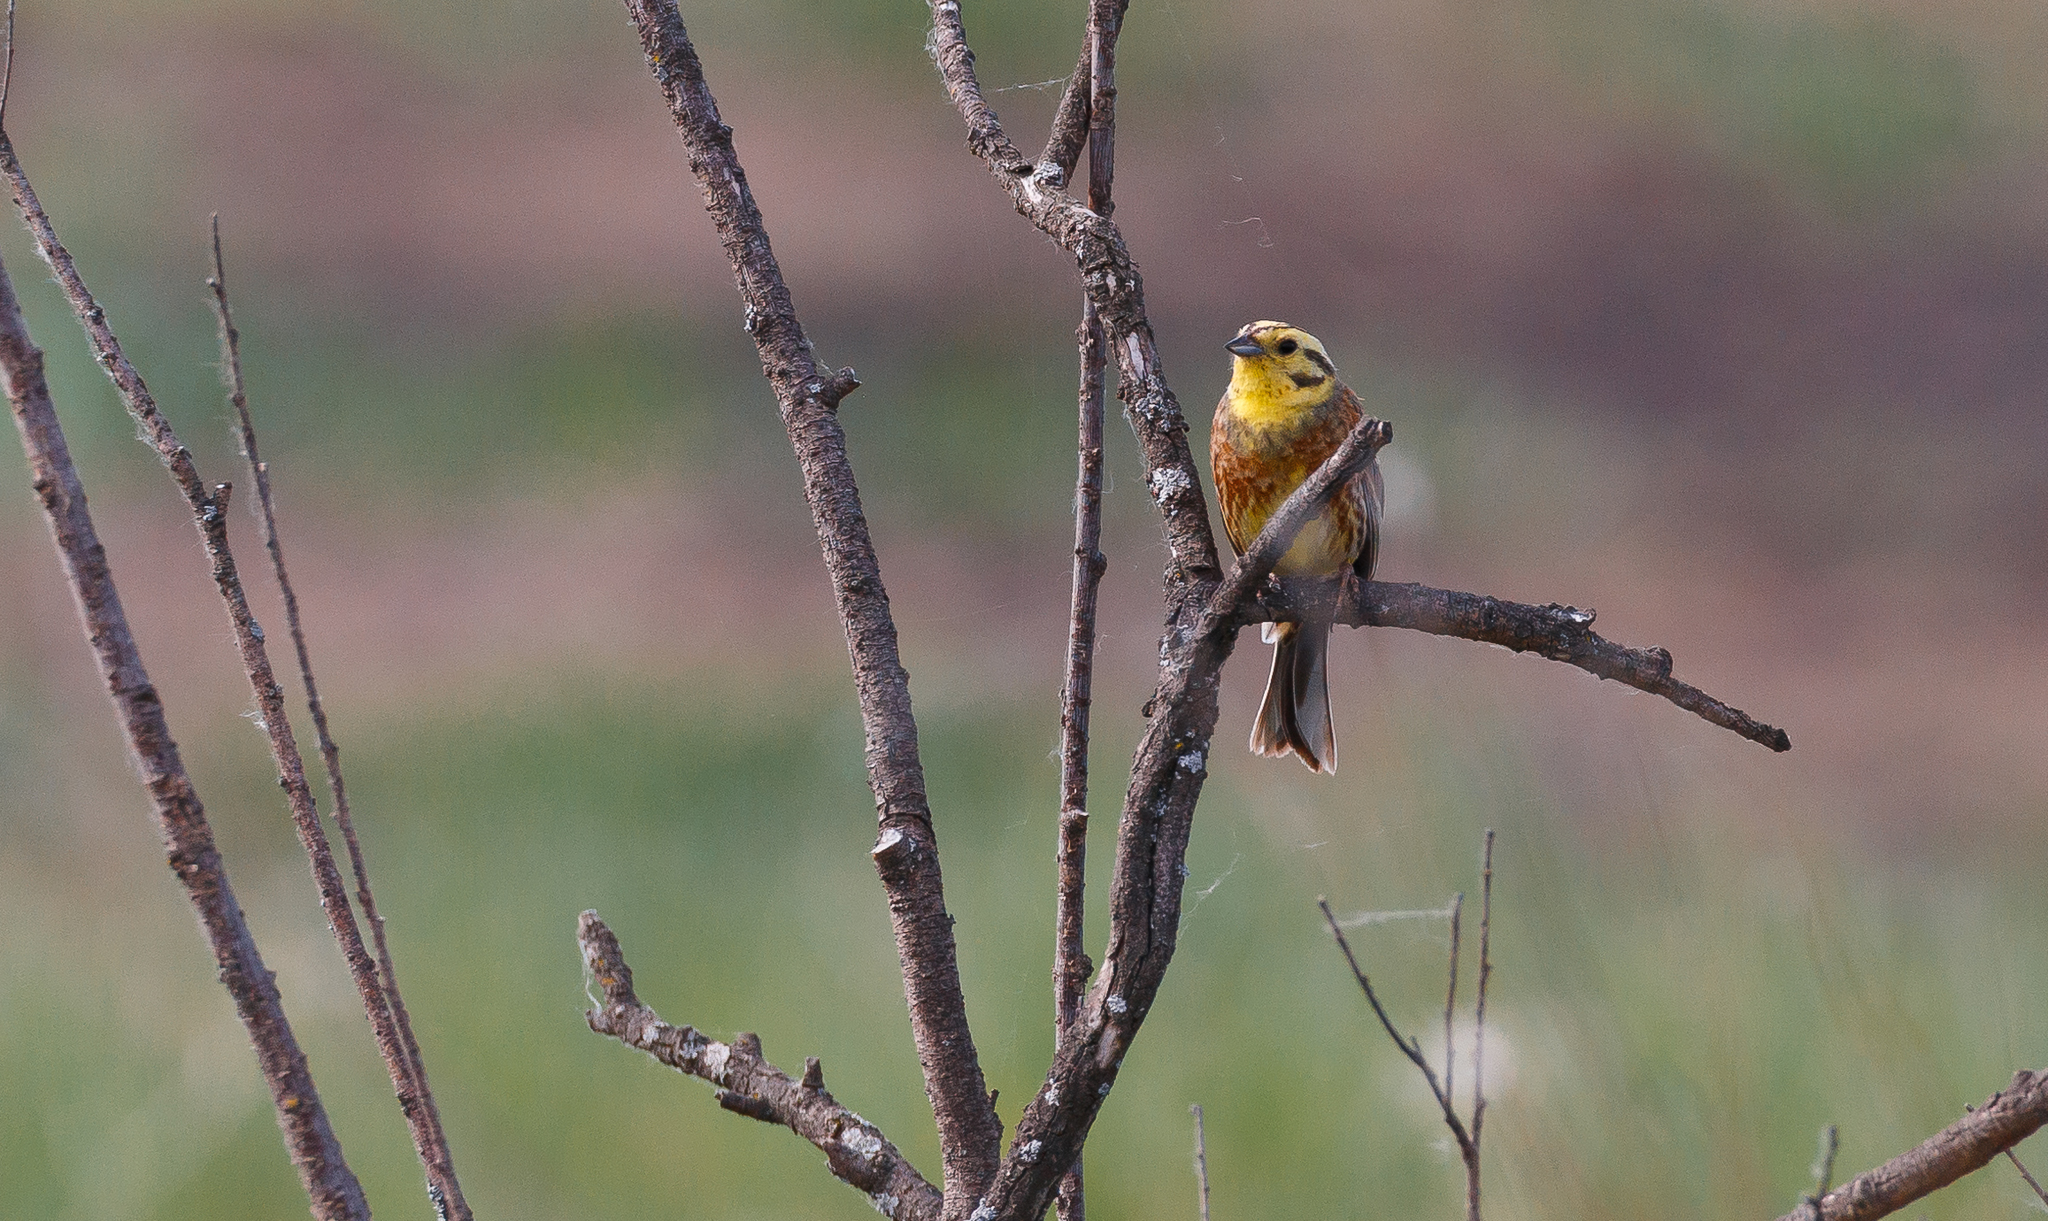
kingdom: Animalia
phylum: Chordata
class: Aves
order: Passeriformes
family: Emberizidae
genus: Emberiza
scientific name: Emberiza citrinella
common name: Yellowhammer
